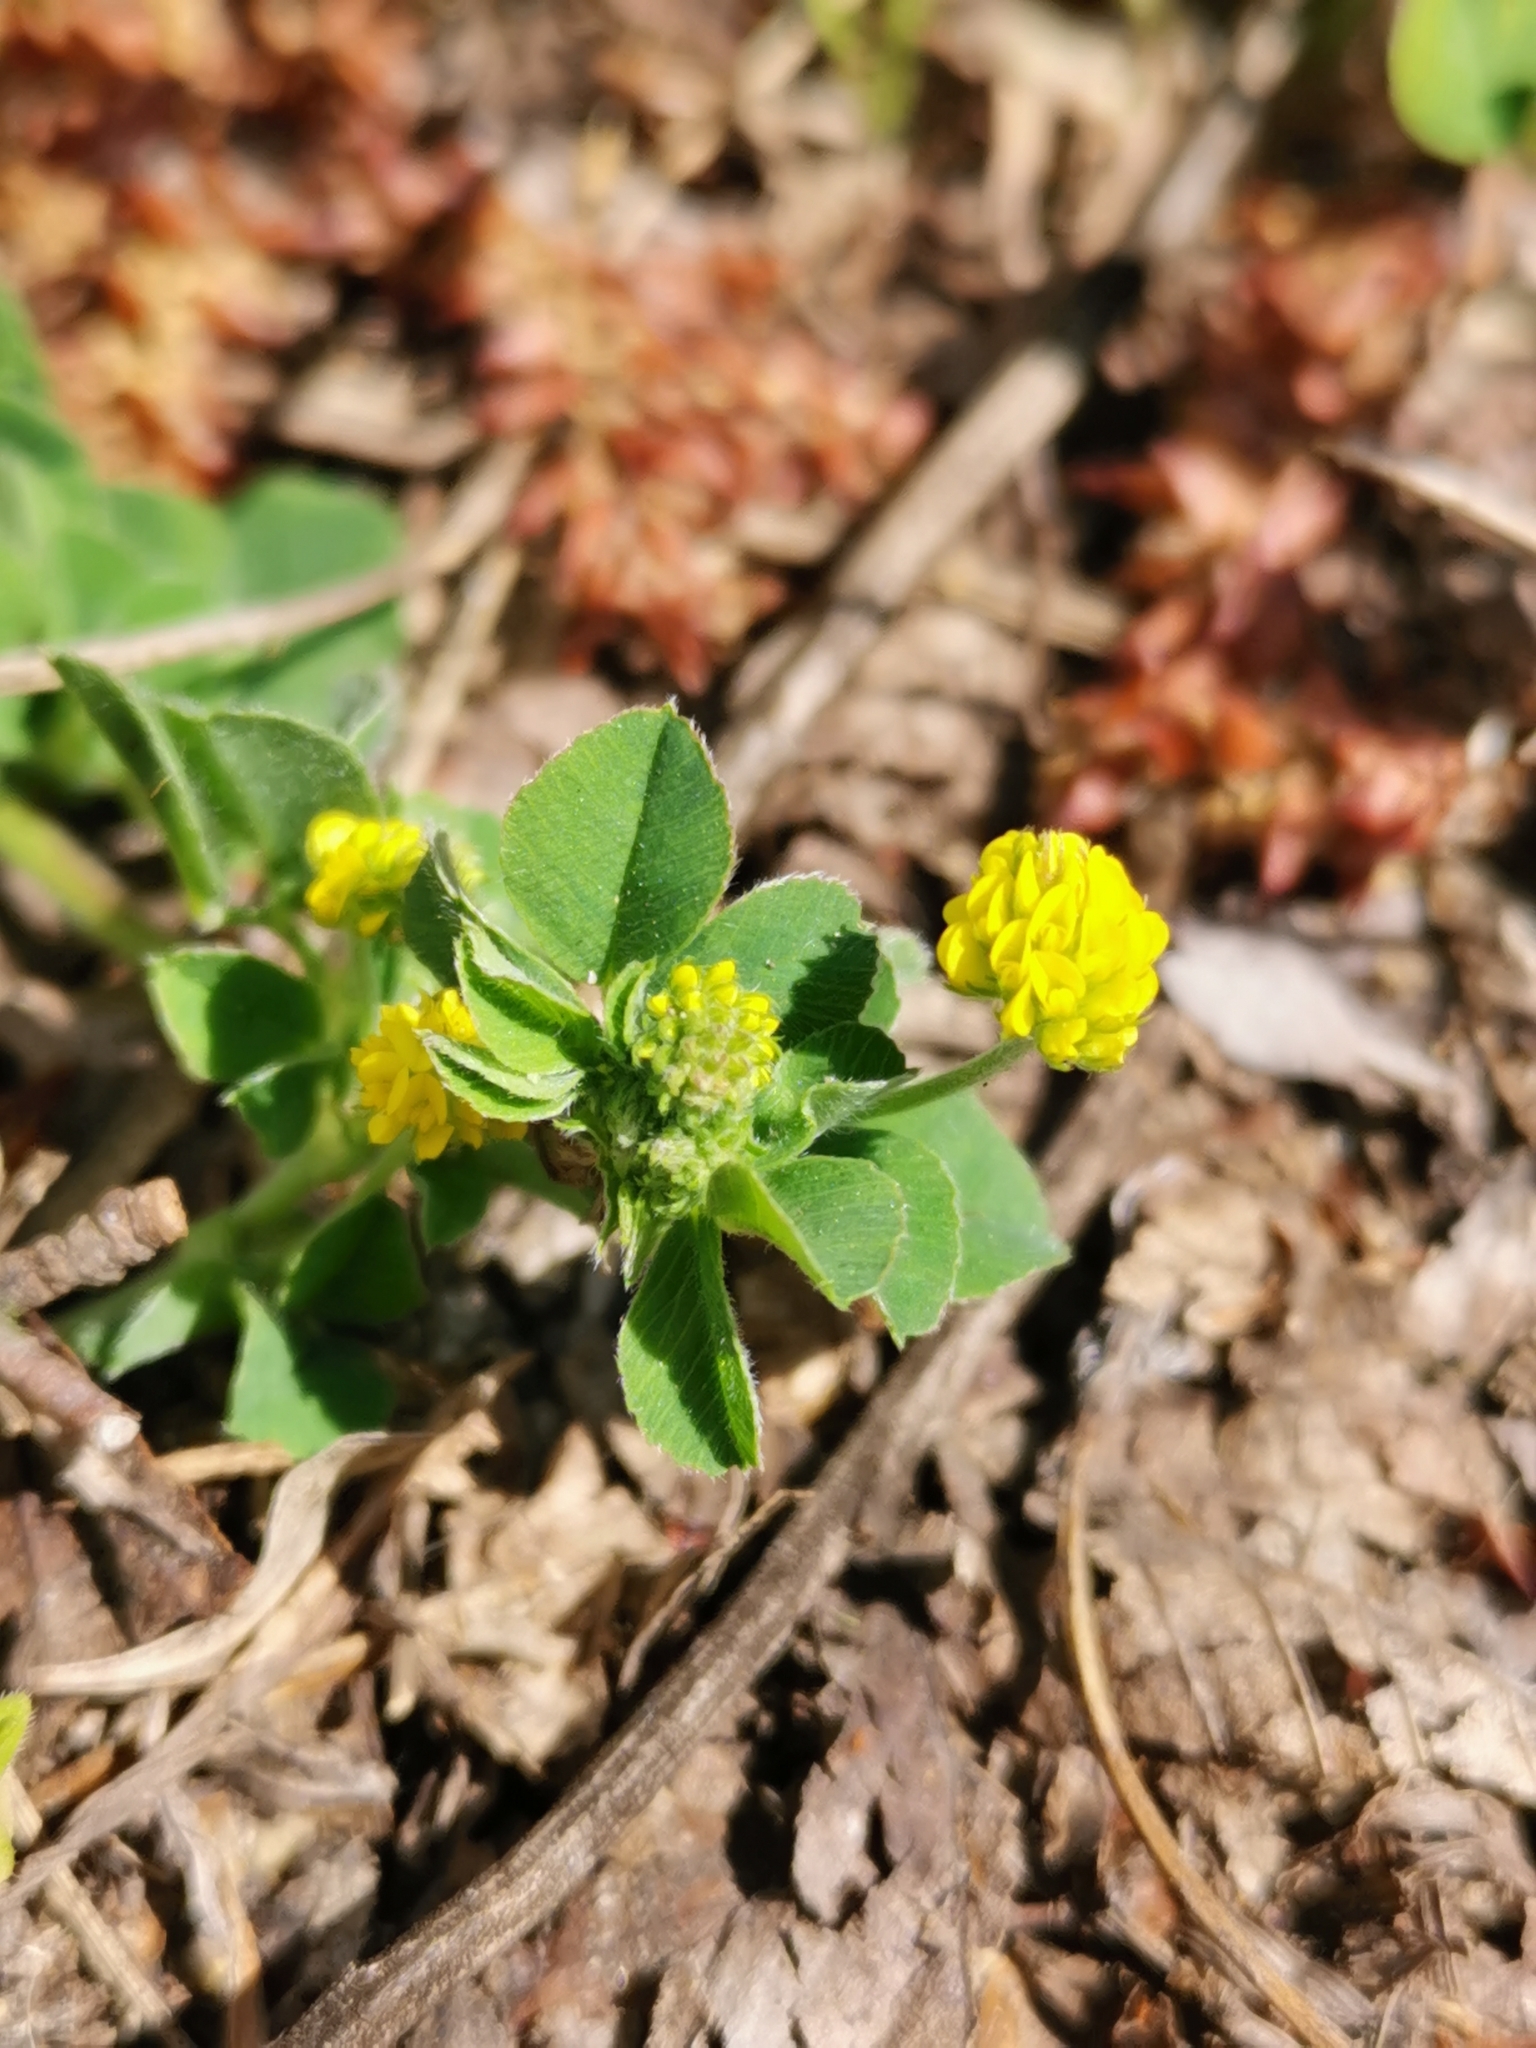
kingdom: Plantae
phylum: Tracheophyta
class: Magnoliopsida
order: Fabales
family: Fabaceae
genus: Medicago
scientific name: Medicago lupulina
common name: Black medick
